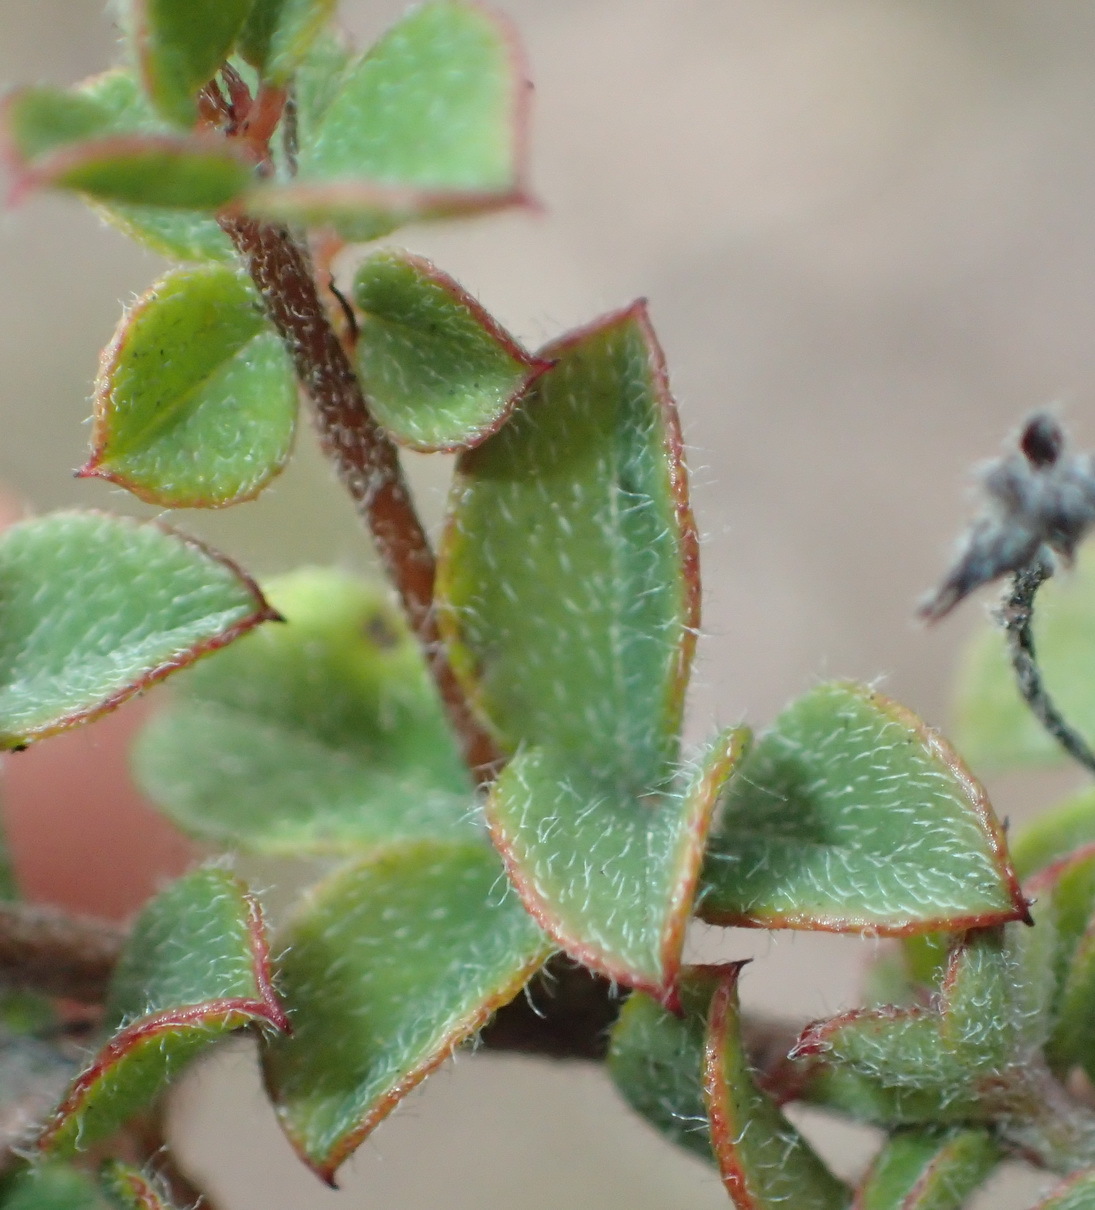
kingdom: Plantae
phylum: Tracheophyta
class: Magnoliopsida
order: Fabales
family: Fabaceae
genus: Indigofera
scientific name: Indigofera alopecuroides
